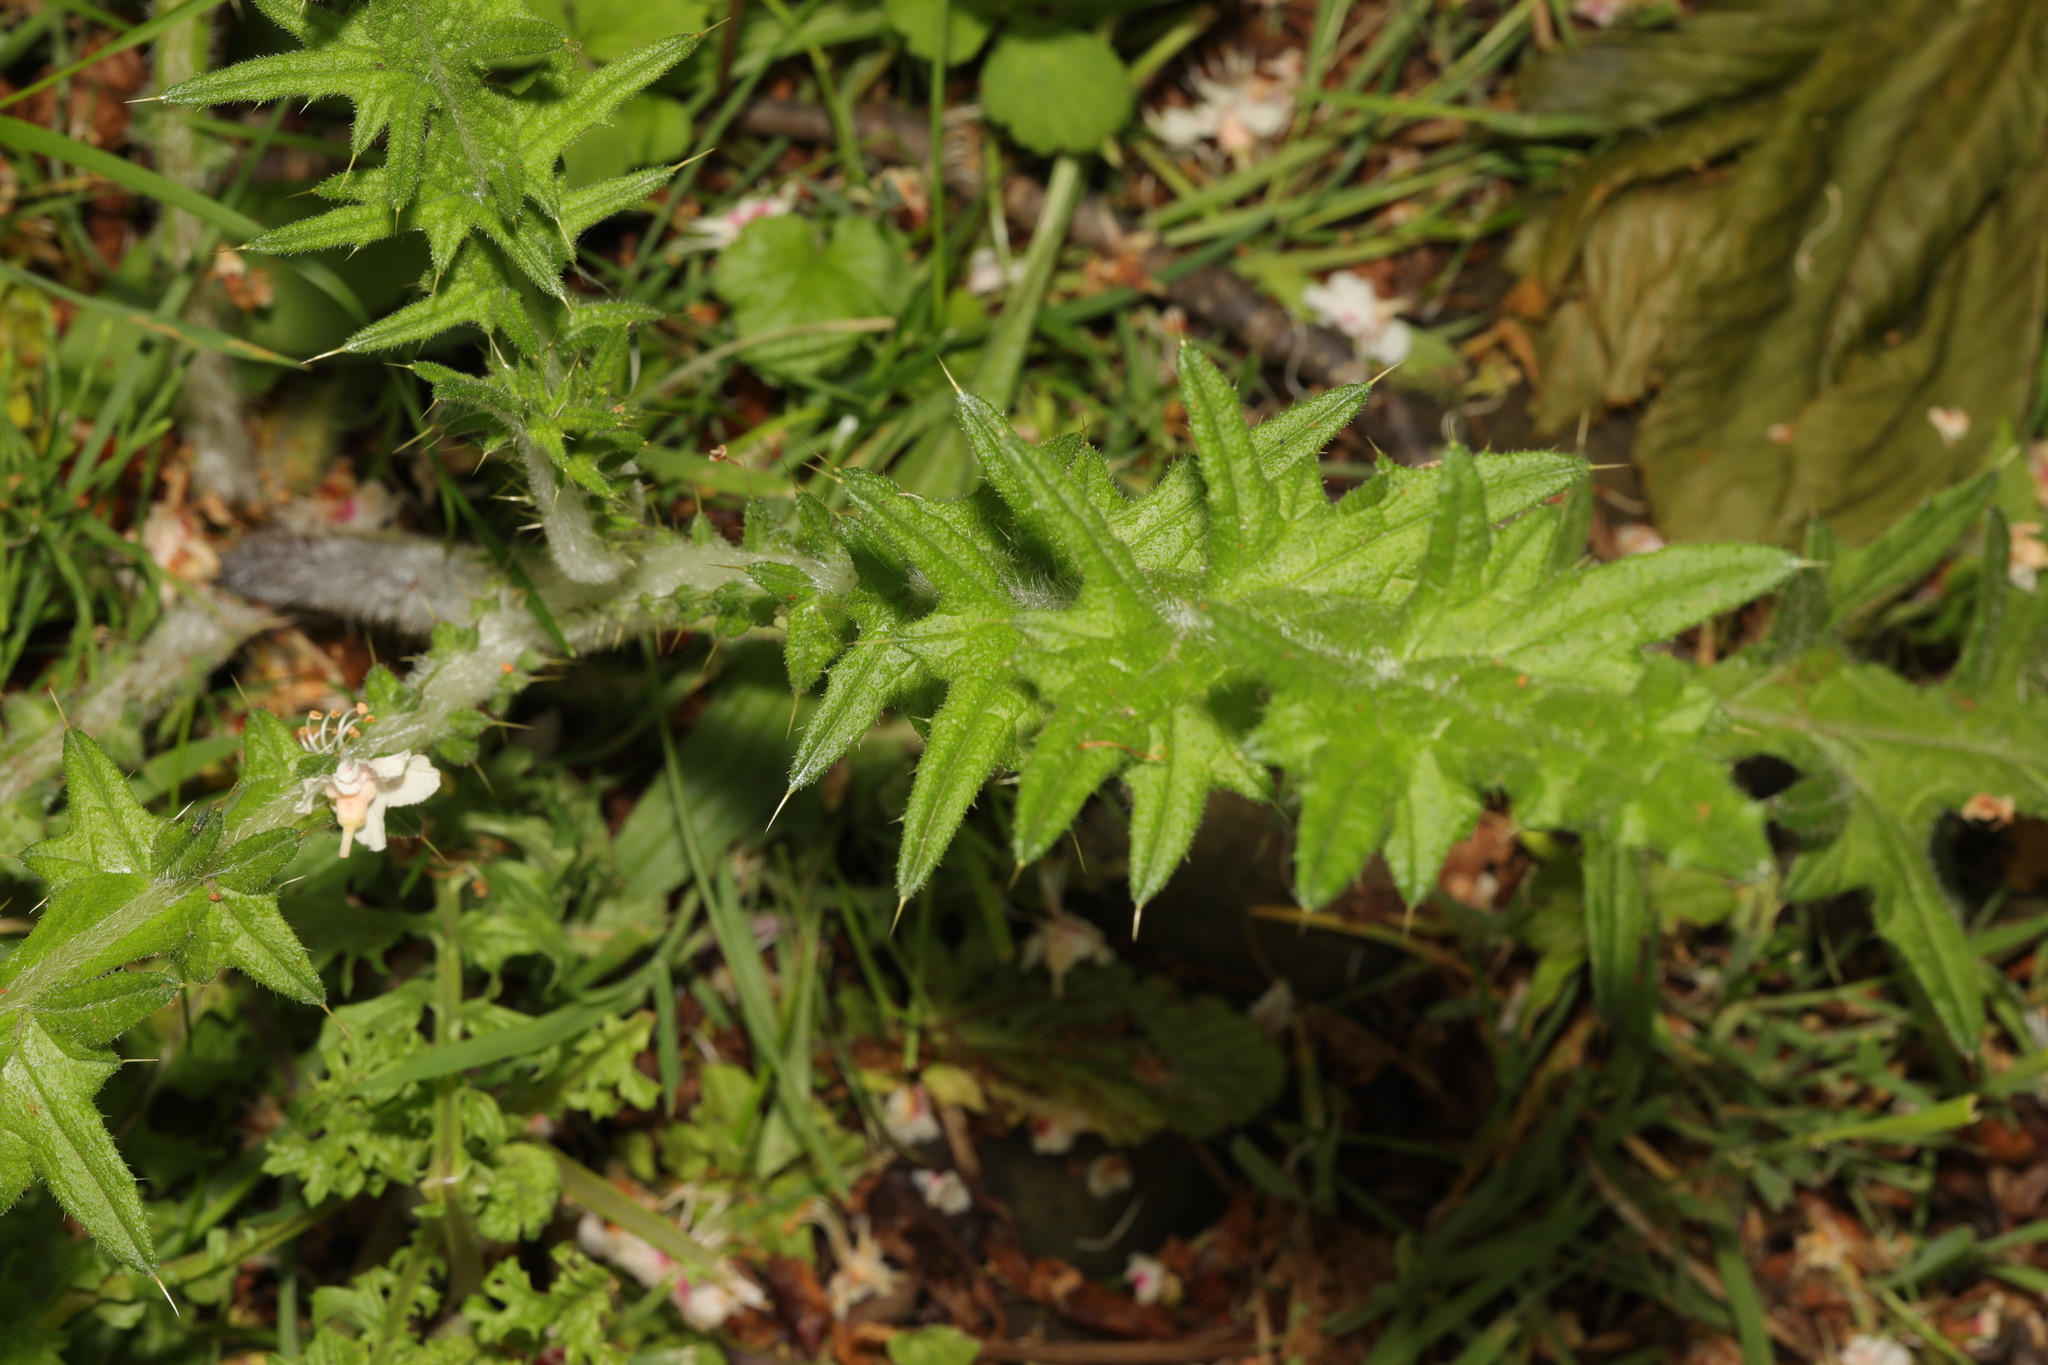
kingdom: Plantae
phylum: Tracheophyta
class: Magnoliopsida
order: Asterales
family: Asteraceae
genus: Cirsium
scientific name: Cirsium vulgare
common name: Bull thistle
